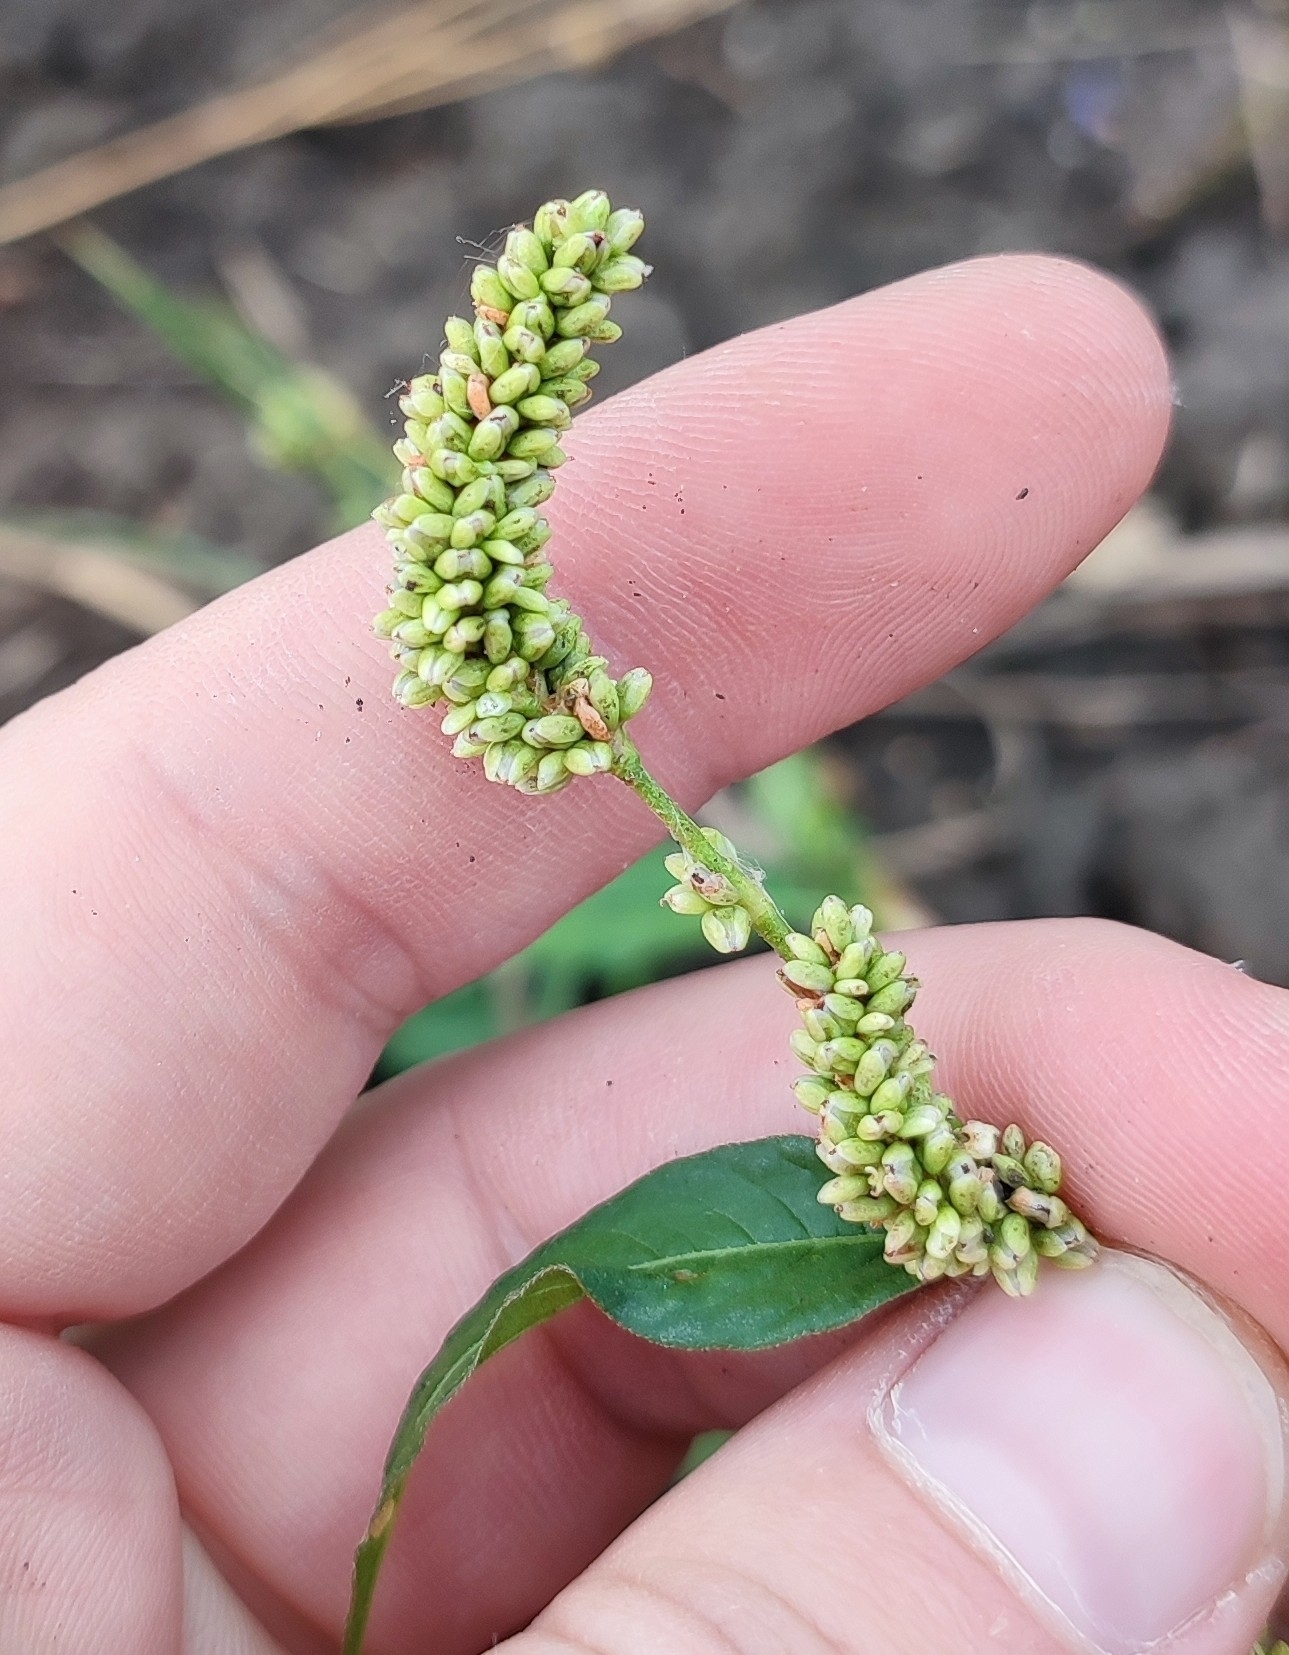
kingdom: Plantae
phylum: Tracheophyta
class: Magnoliopsida
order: Caryophyllales
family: Polygonaceae
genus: Persicaria
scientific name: Persicaria lapathifolia
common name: Curlytop knotweed
